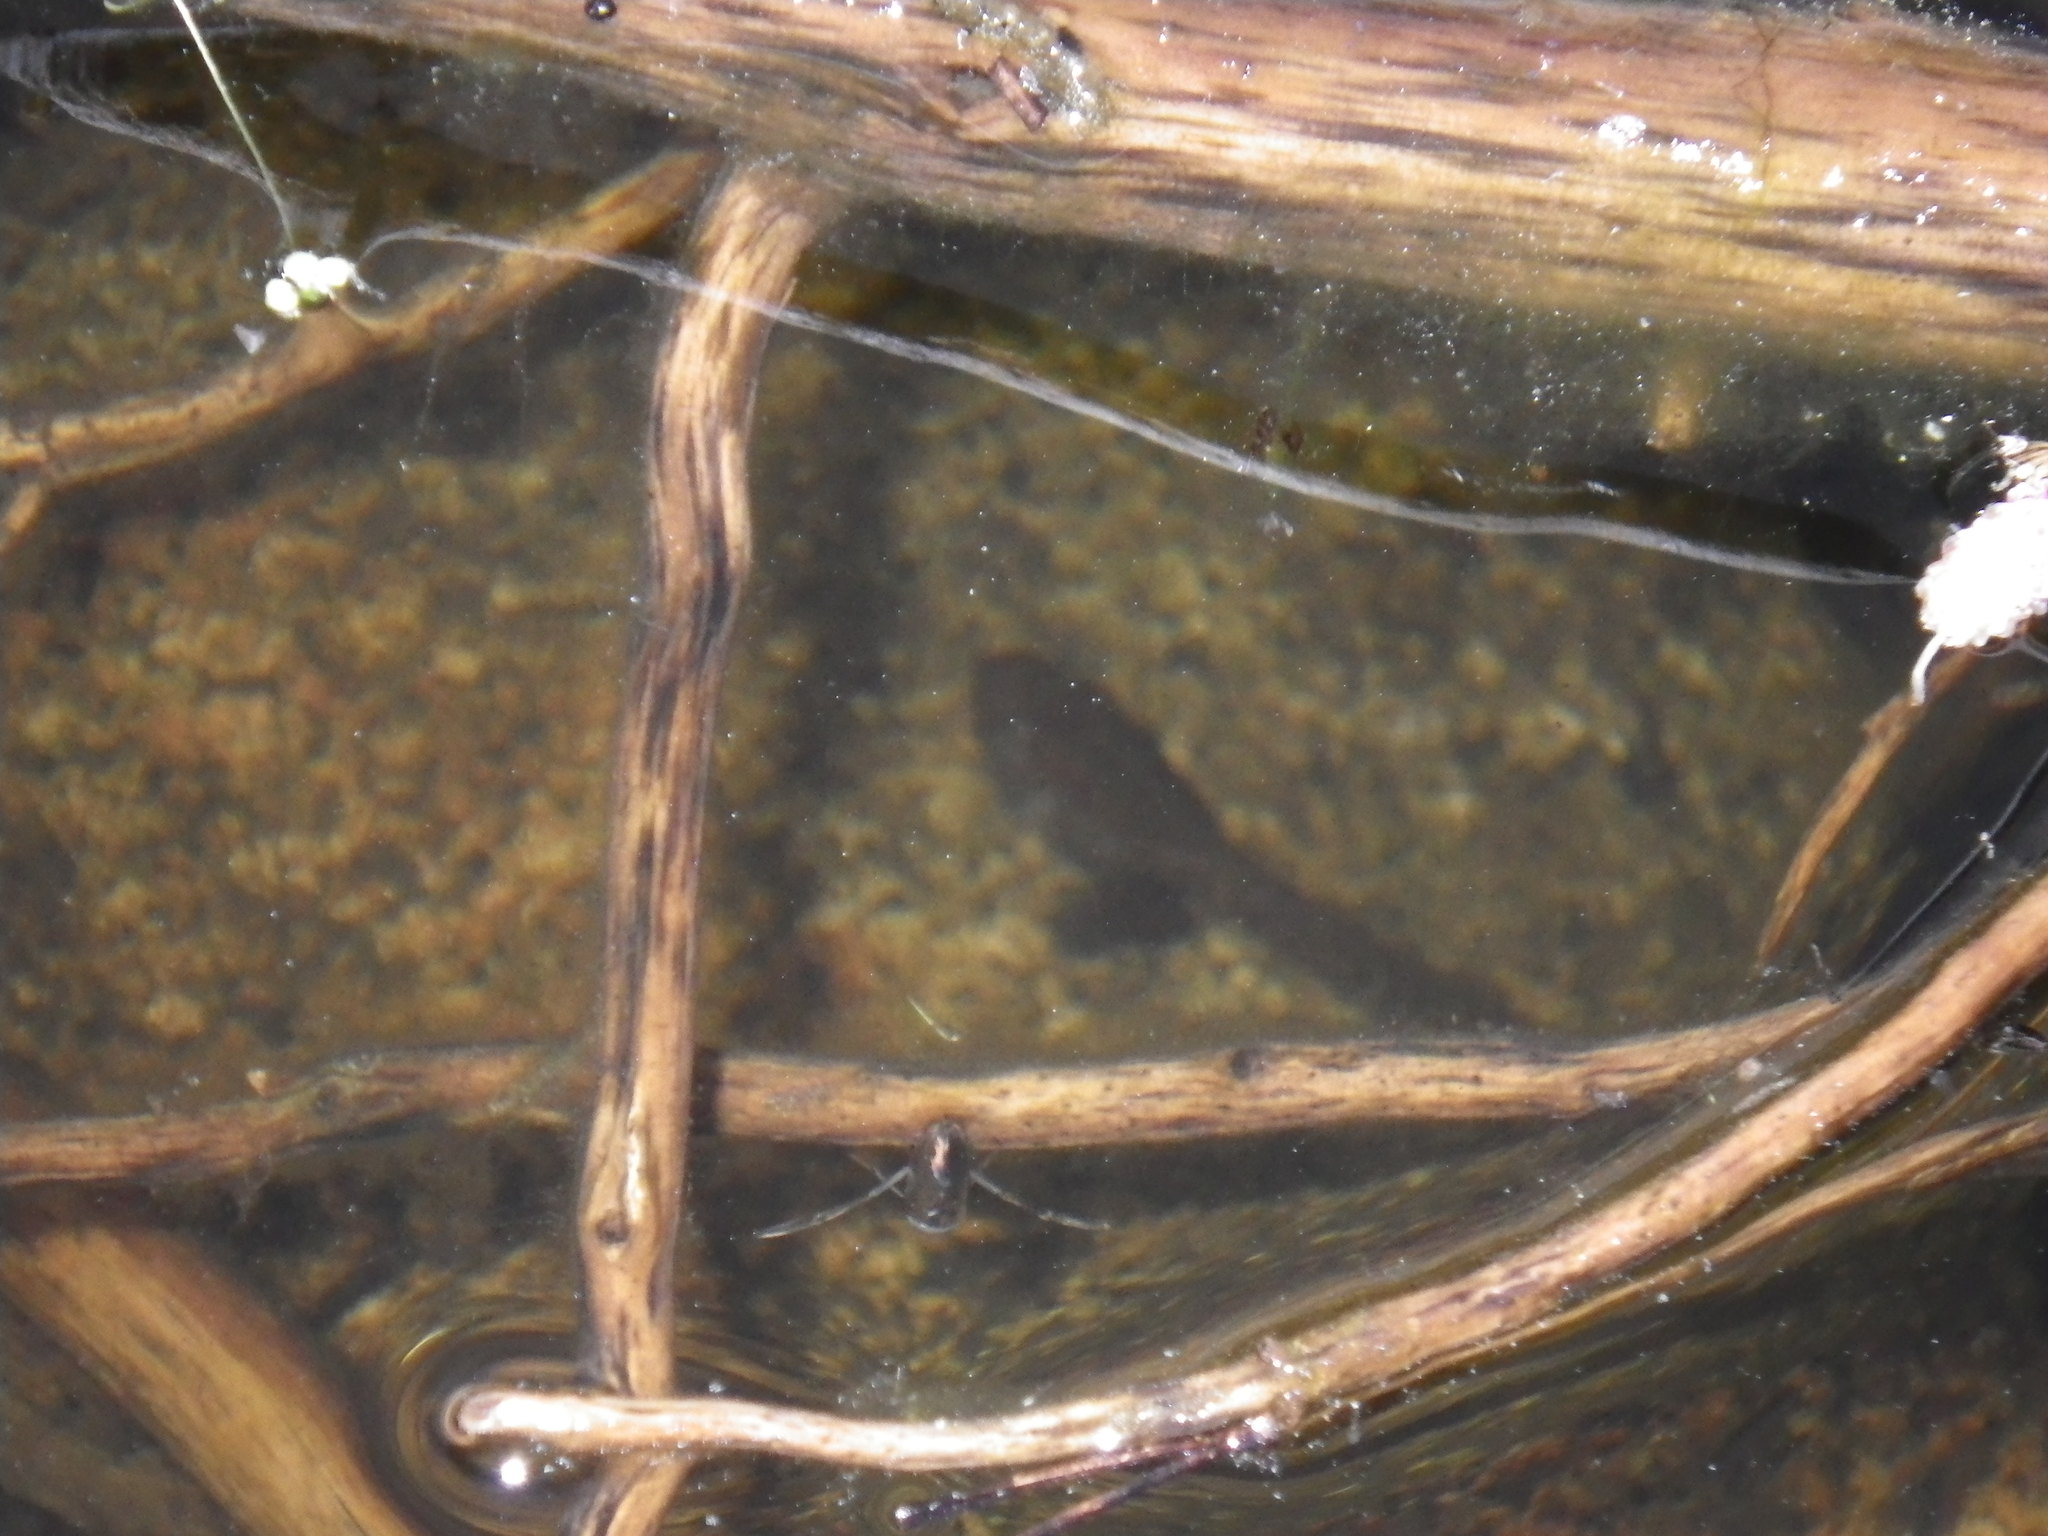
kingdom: Animalia
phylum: Chordata
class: Amphibia
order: Anura
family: Ranidae
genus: Rana
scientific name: Rana sierrae
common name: Sierra nevada yellow-legged frog
